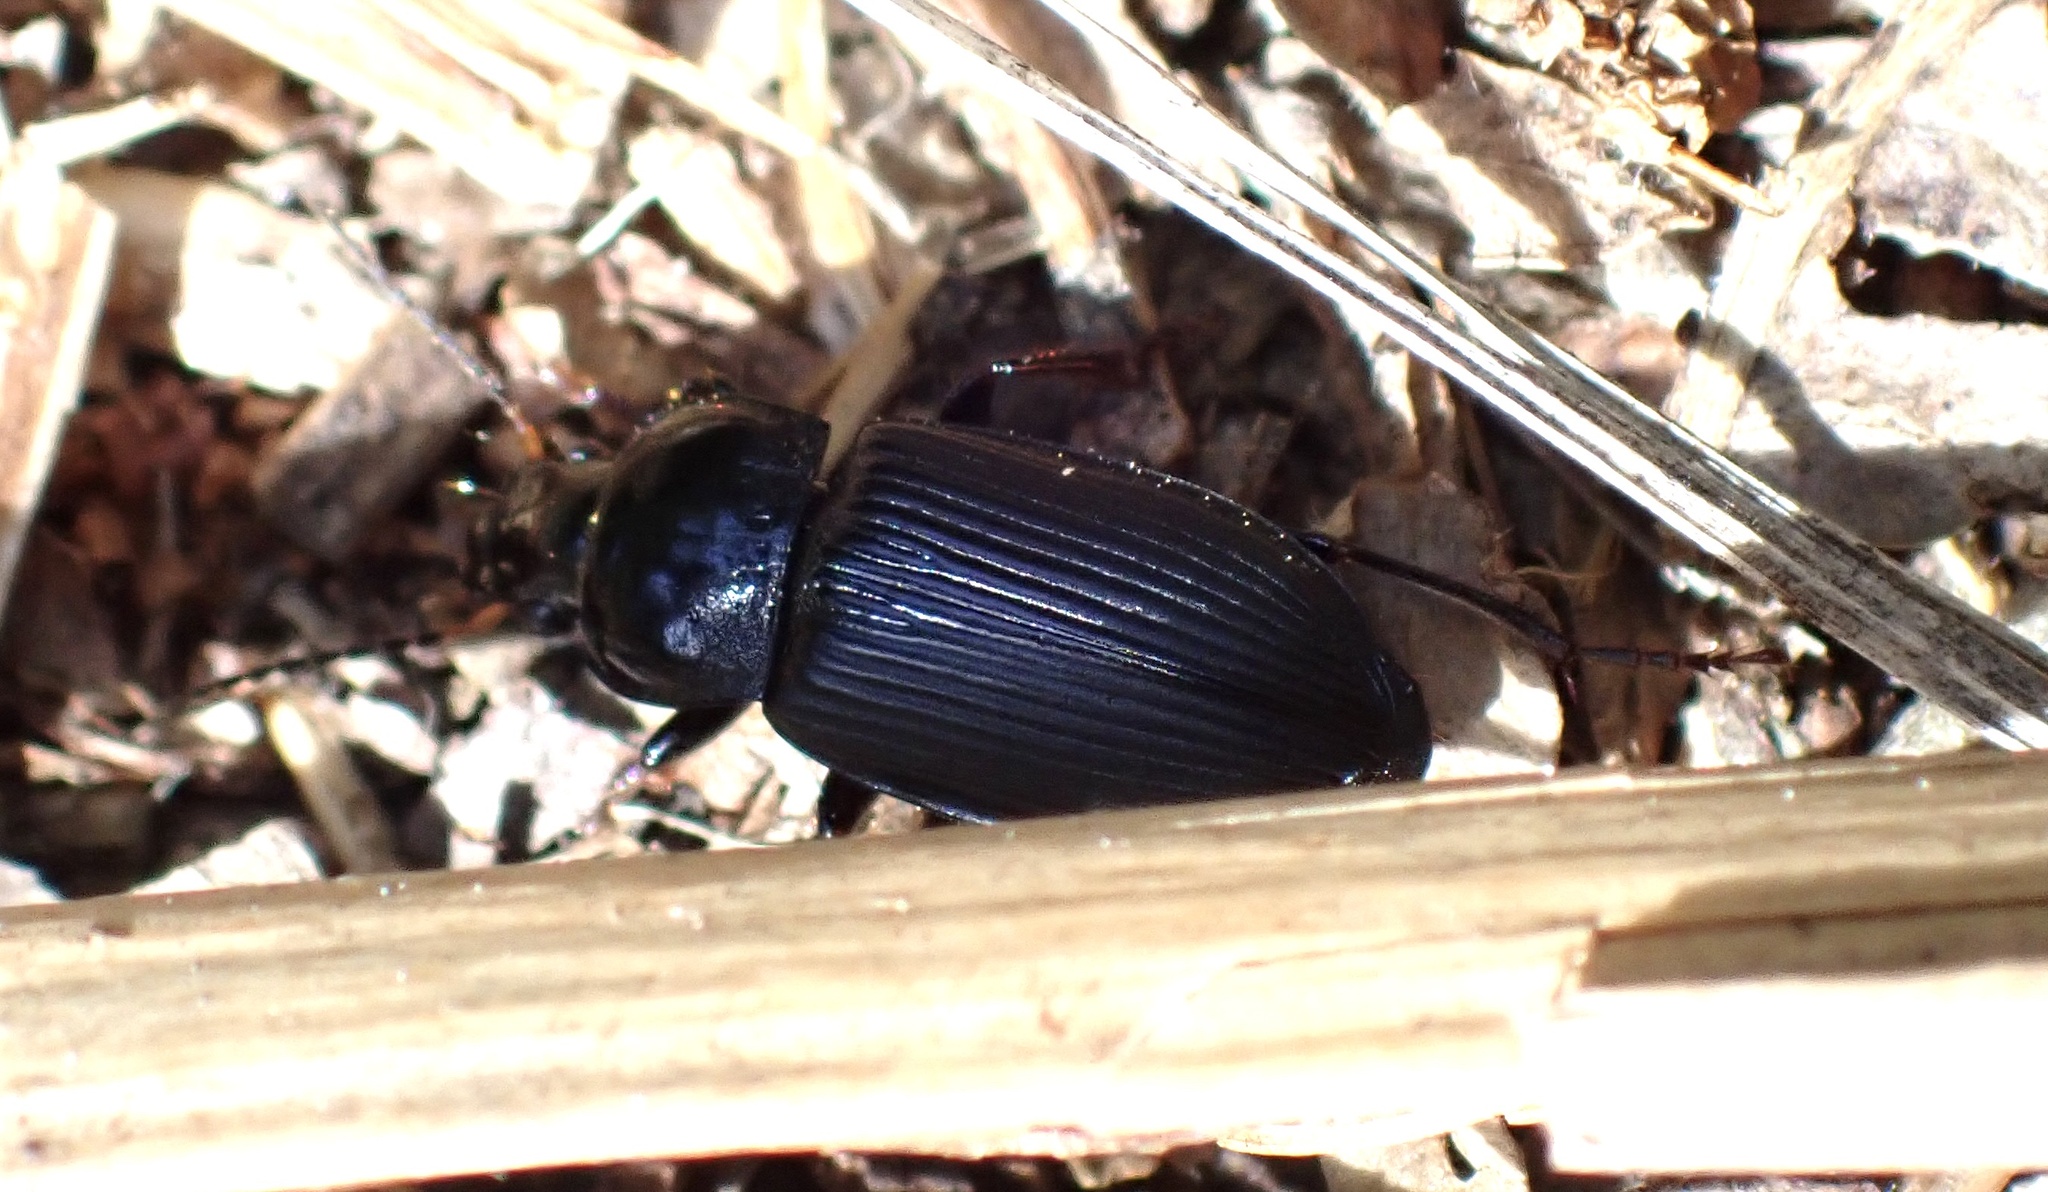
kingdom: Animalia
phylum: Arthropoda
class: Insecta
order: Coleoptera
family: Carabidae
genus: Anisodactylus
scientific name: Anisodactylus binotatus
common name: Two-marked harp ground beetle
